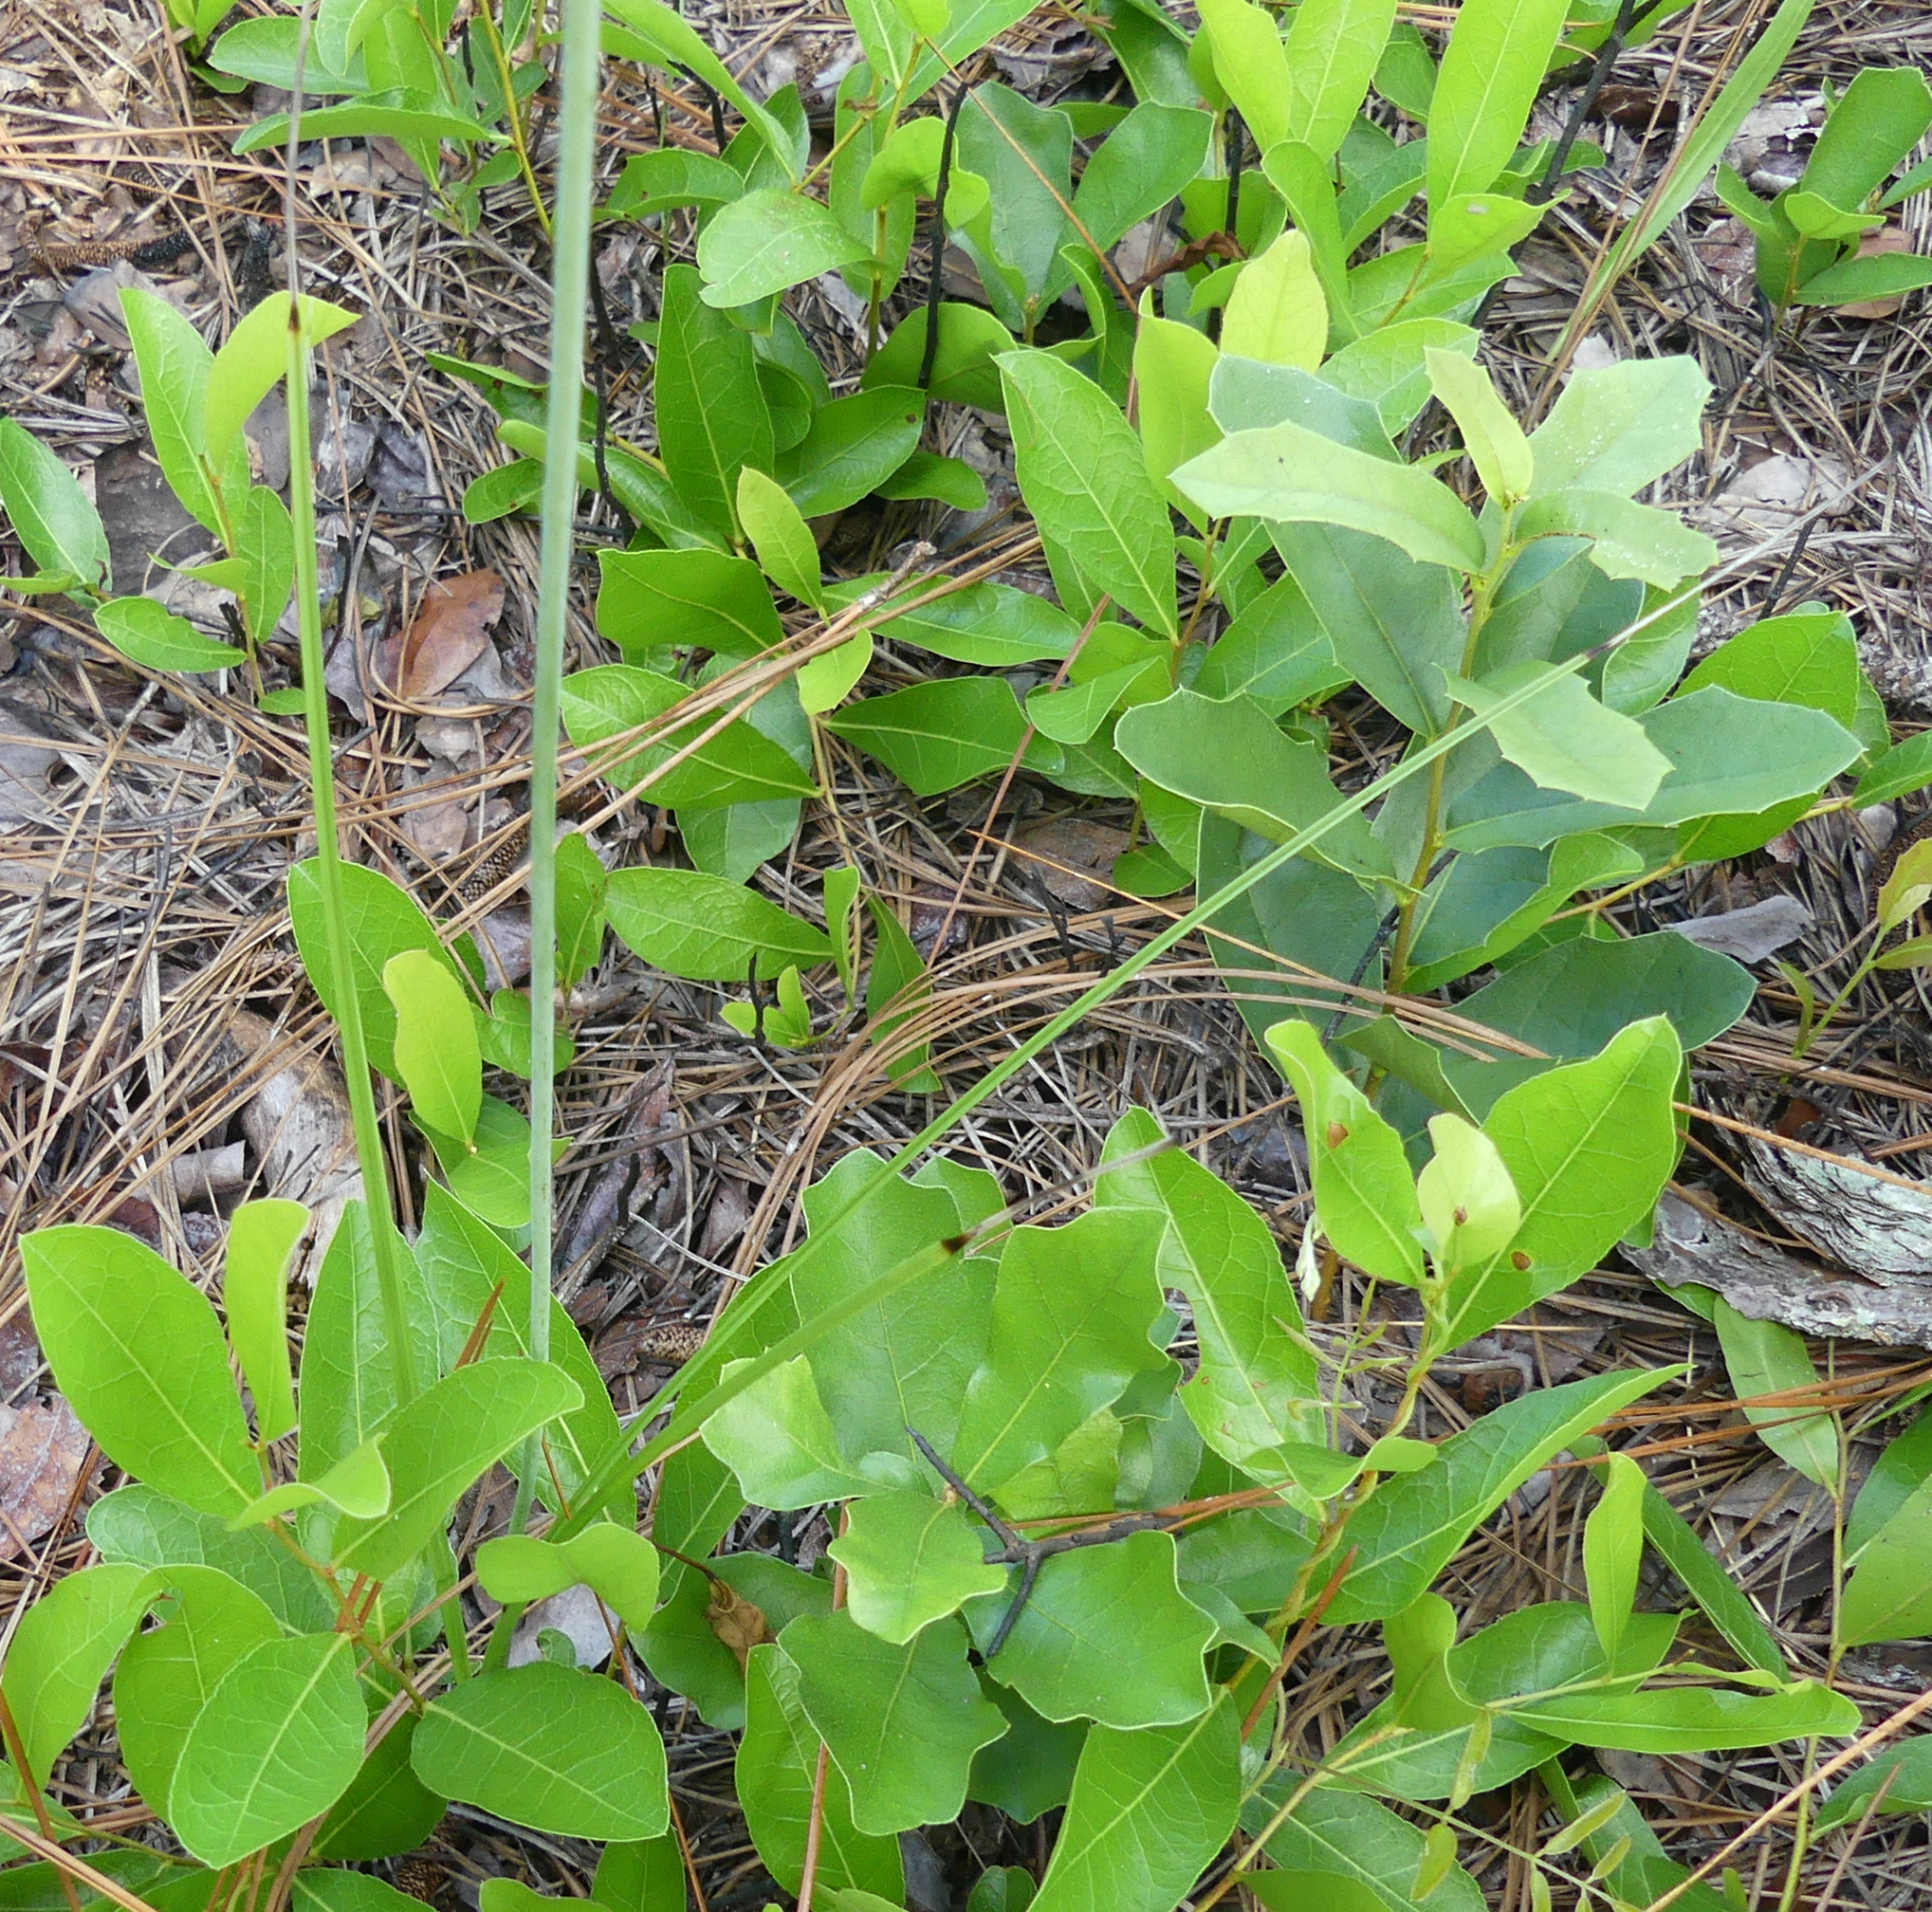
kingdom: Plantae
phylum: Tracheophyta
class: Liliopsida
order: Liliales
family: Melanthiaceae
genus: Schoenocaulon
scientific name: Schoenocaulon dubium
